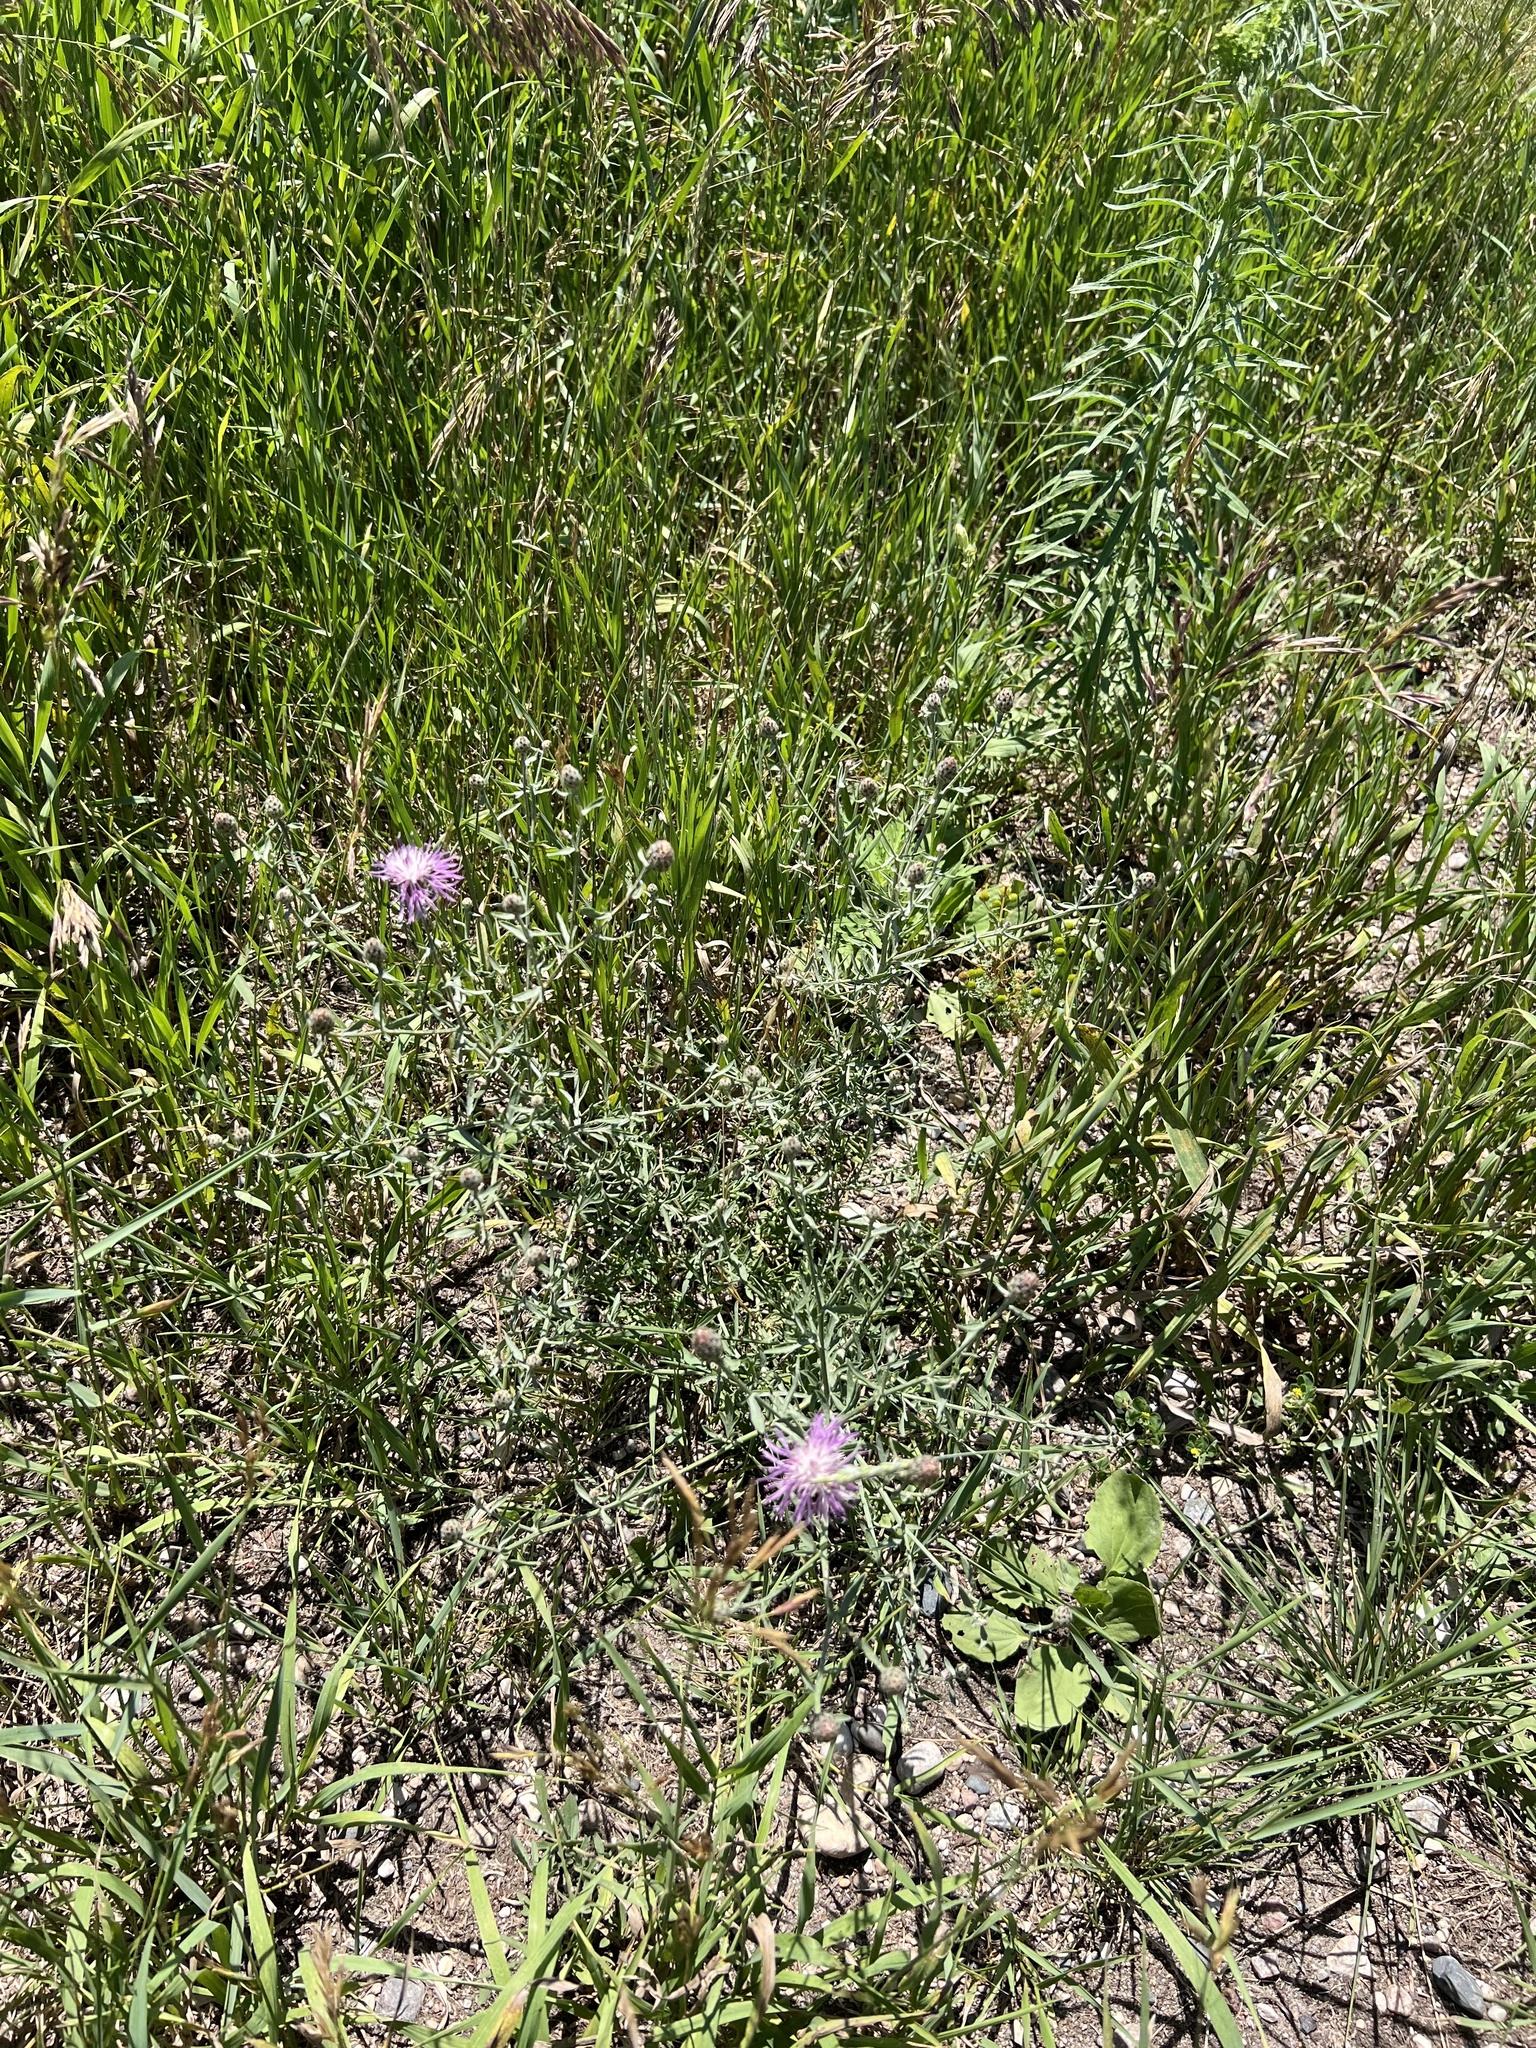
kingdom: Plantae
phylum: Tracheophyta
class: Magnoliopsida
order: Asterales
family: Asteraceae
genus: Centaurea
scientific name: Centaurea stoebe
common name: Spotted knapweed
